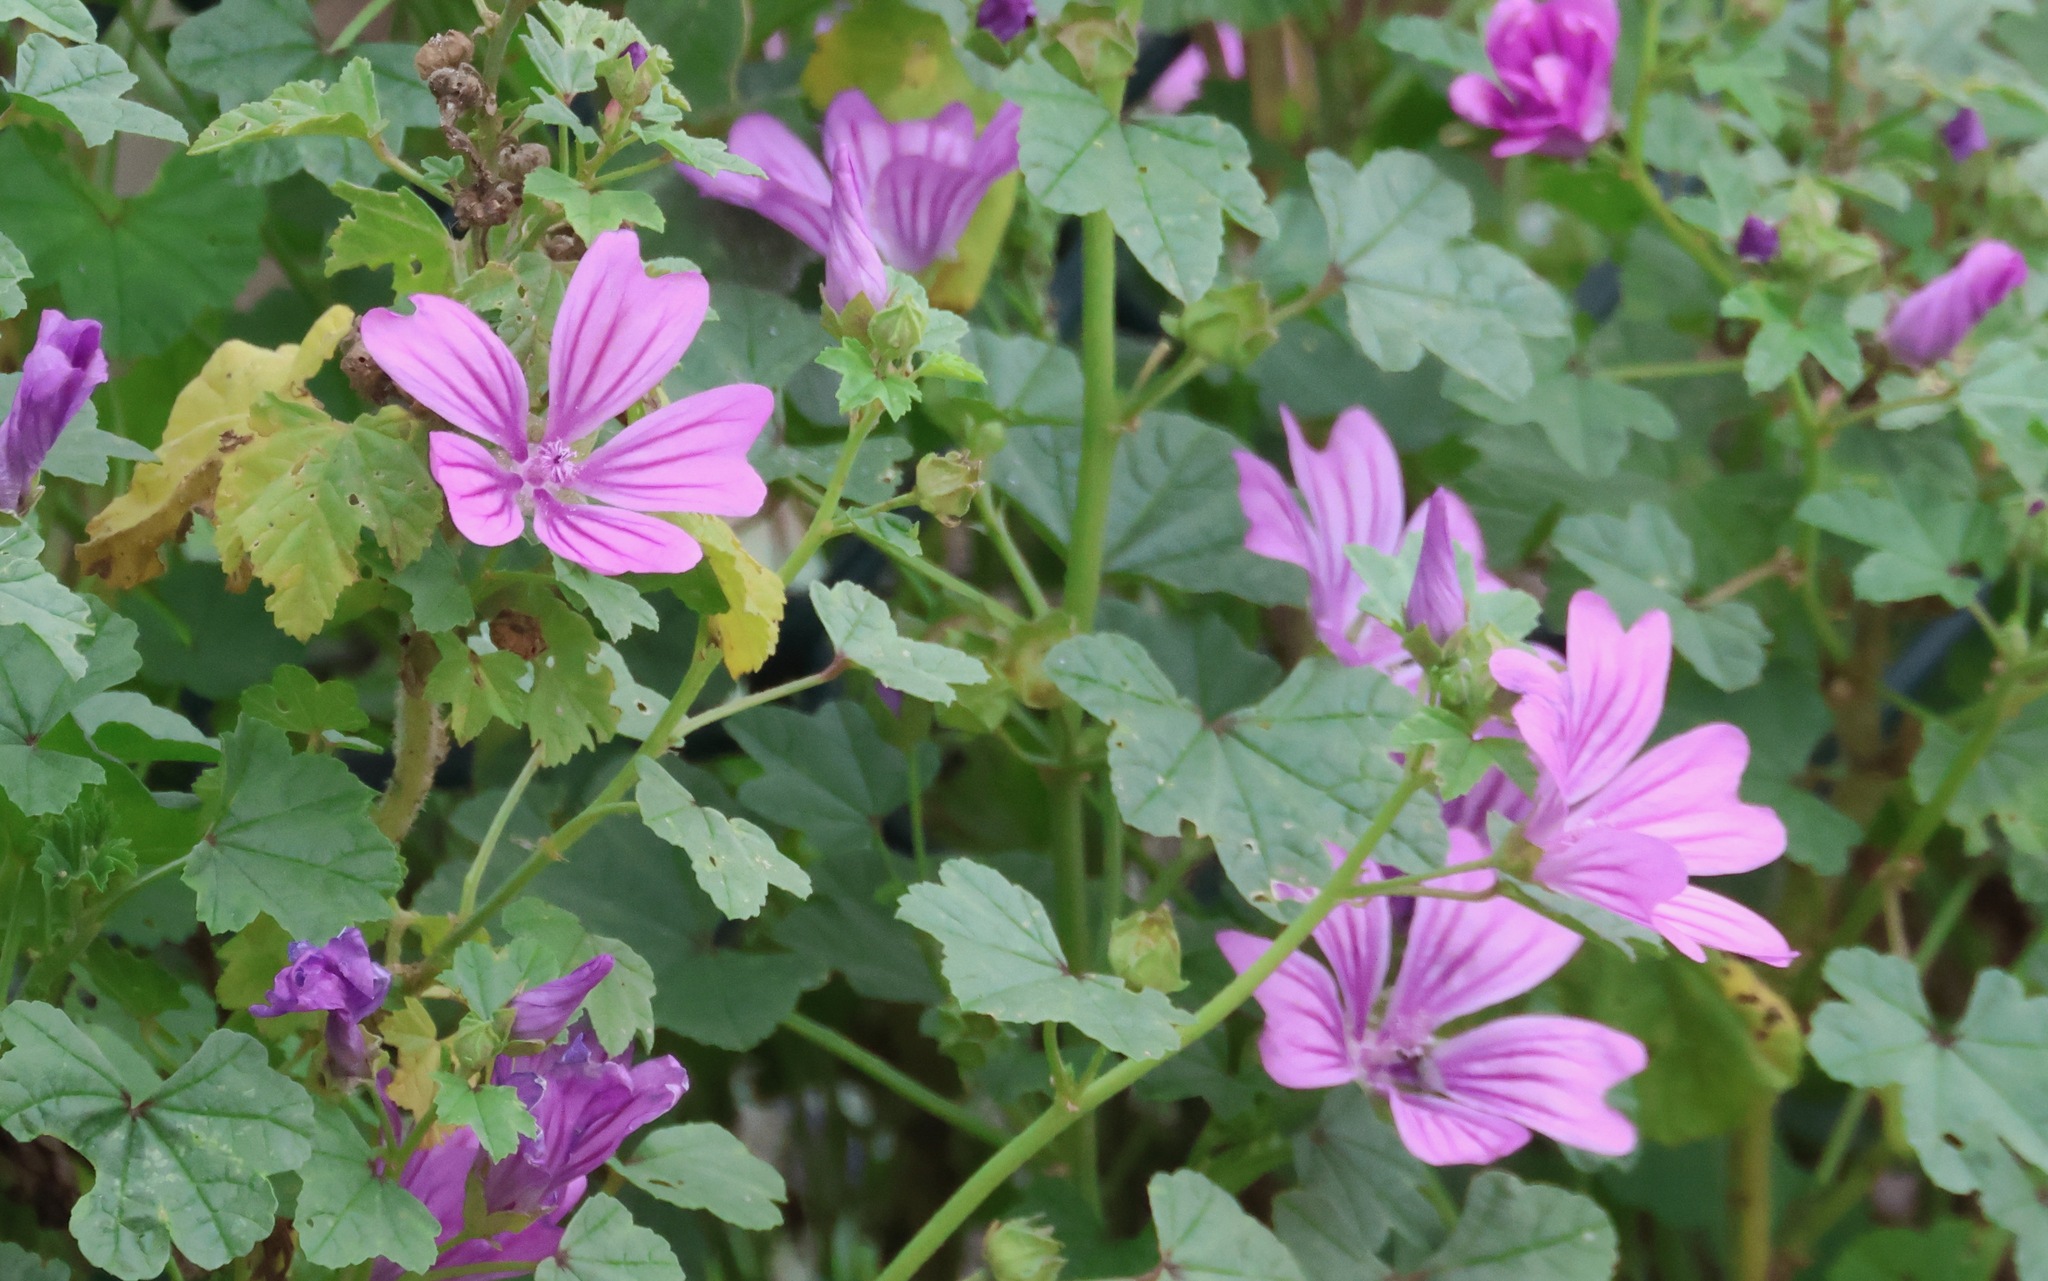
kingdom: Plantae
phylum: Tracheophyta
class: Magnoliopsida
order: Malvales
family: Malvaceae
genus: Malva
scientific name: Malva sylvestris
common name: Common mallow
